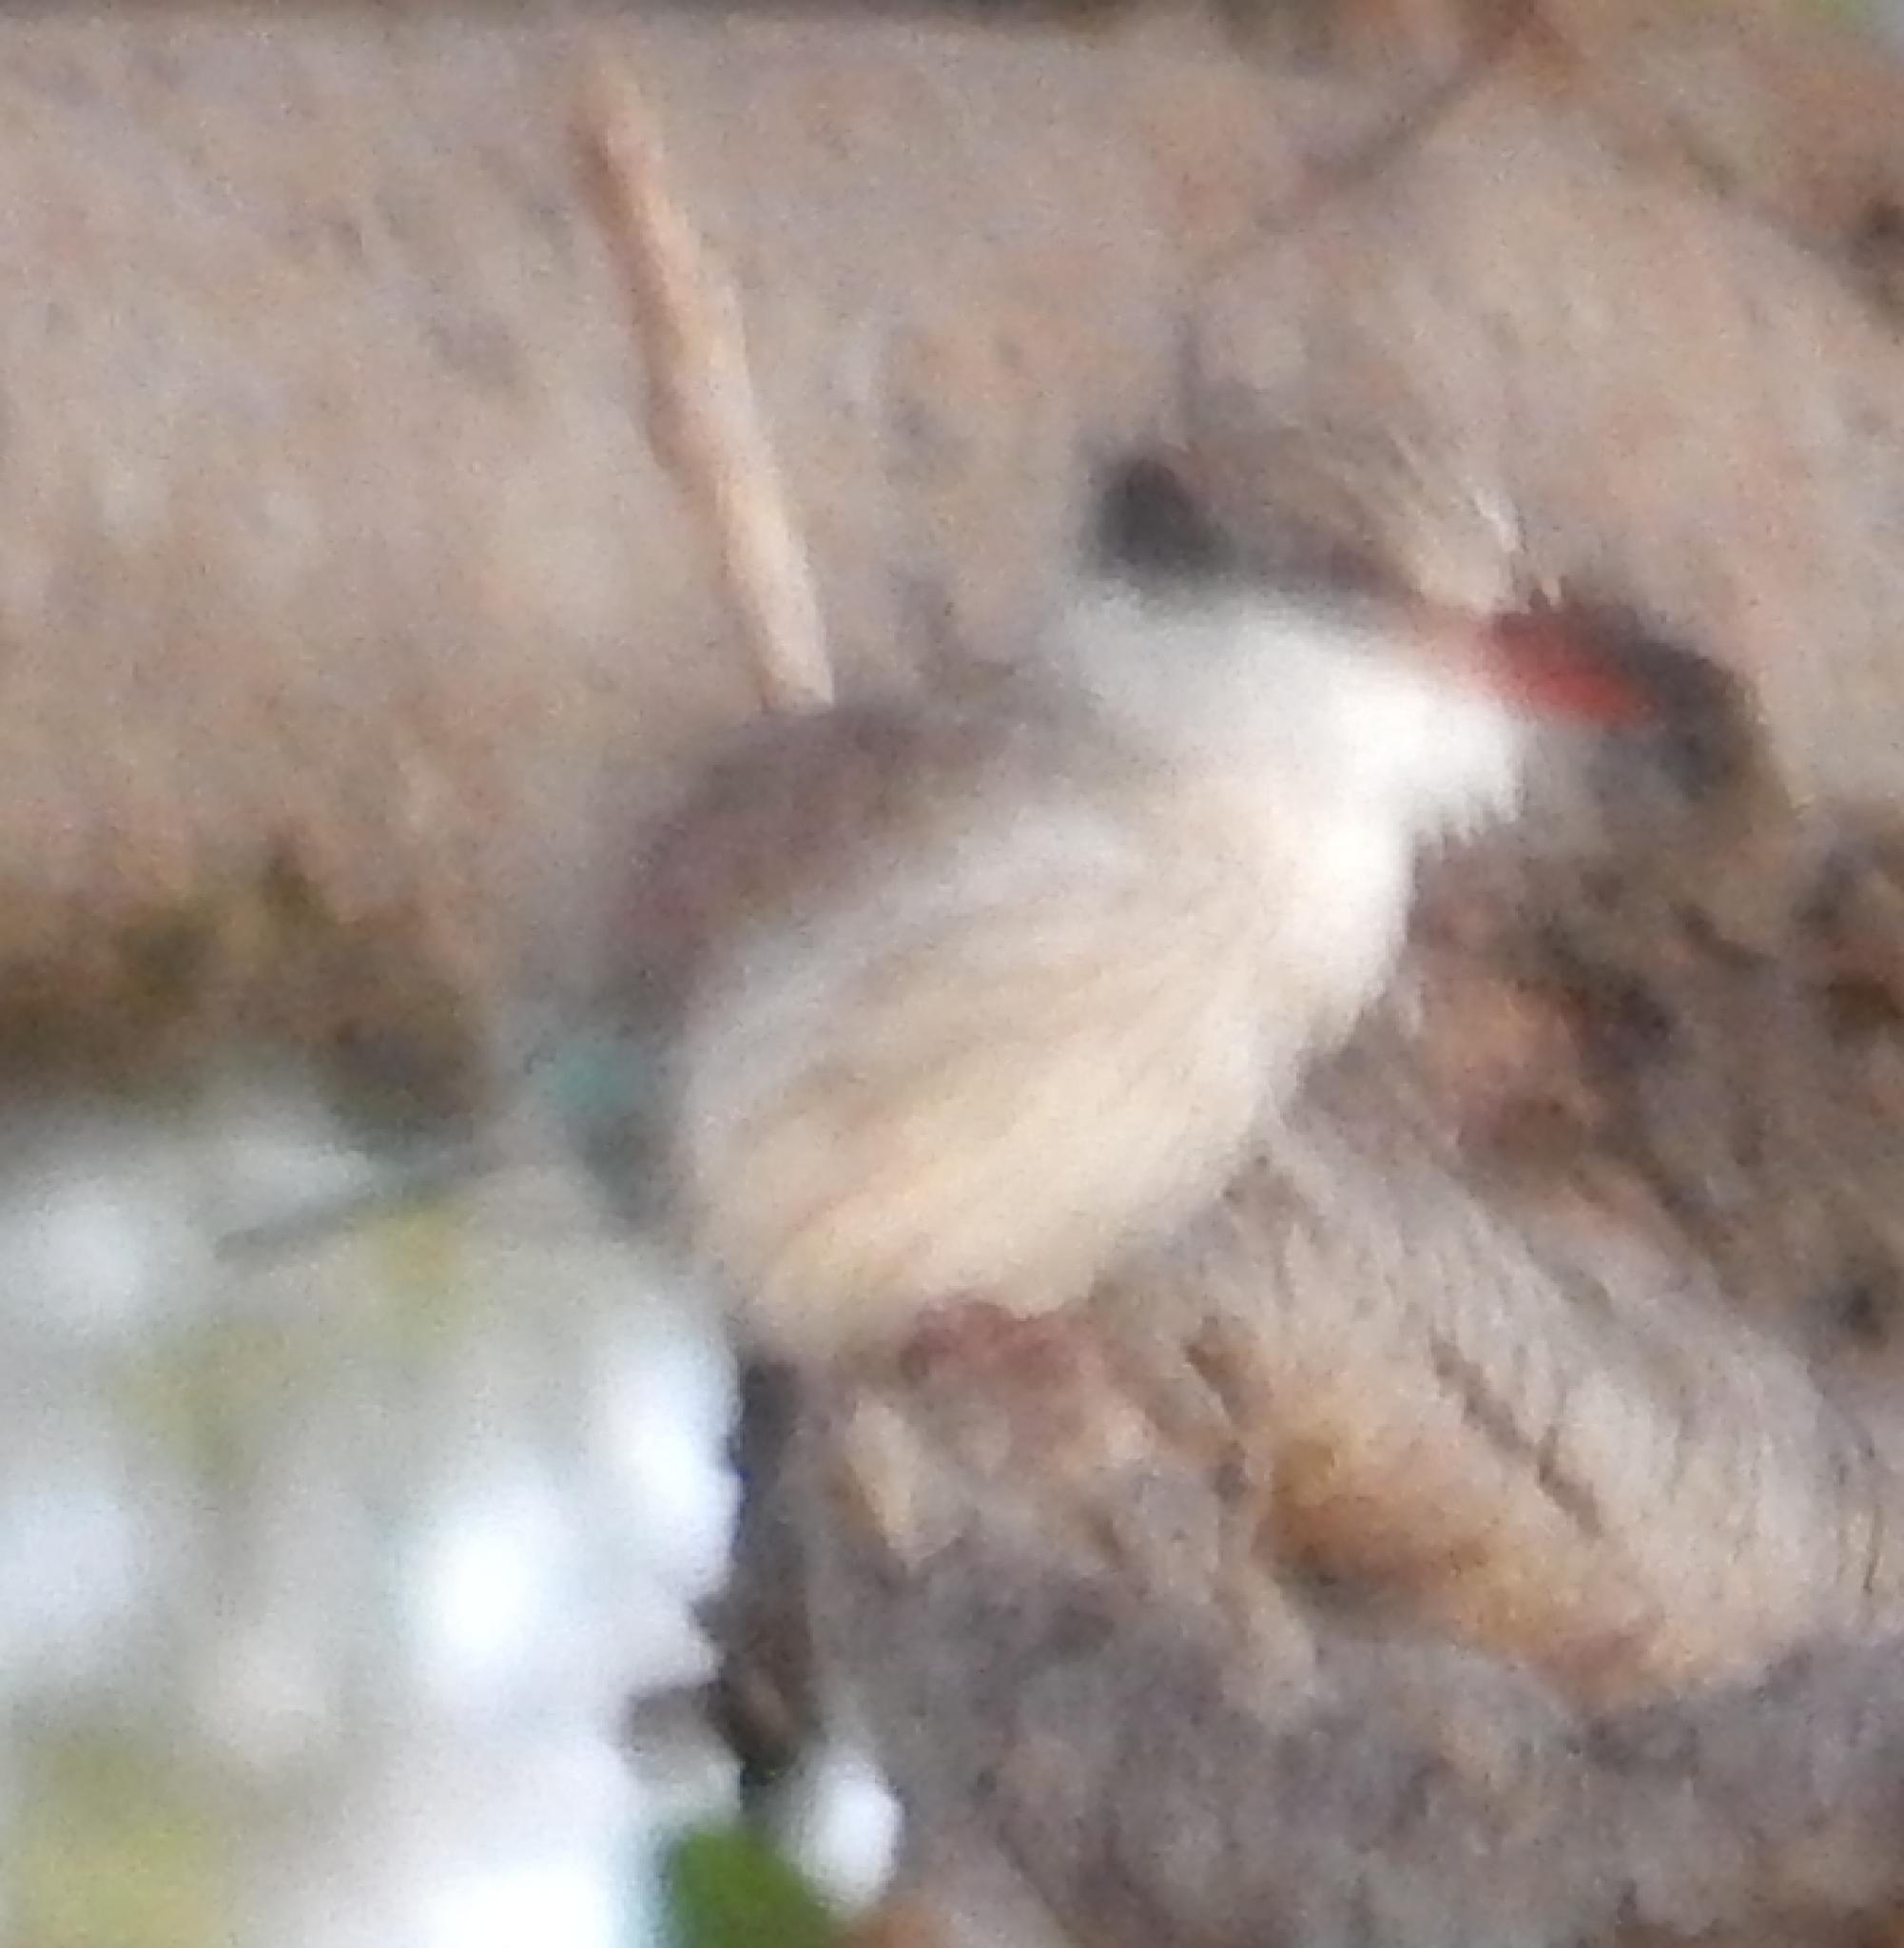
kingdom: Animalia
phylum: Chordata
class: Aves
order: Coraciiformes
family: Alcedinidae
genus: Halcyon
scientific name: Halcyon chelicuti
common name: Striped kingfisher
